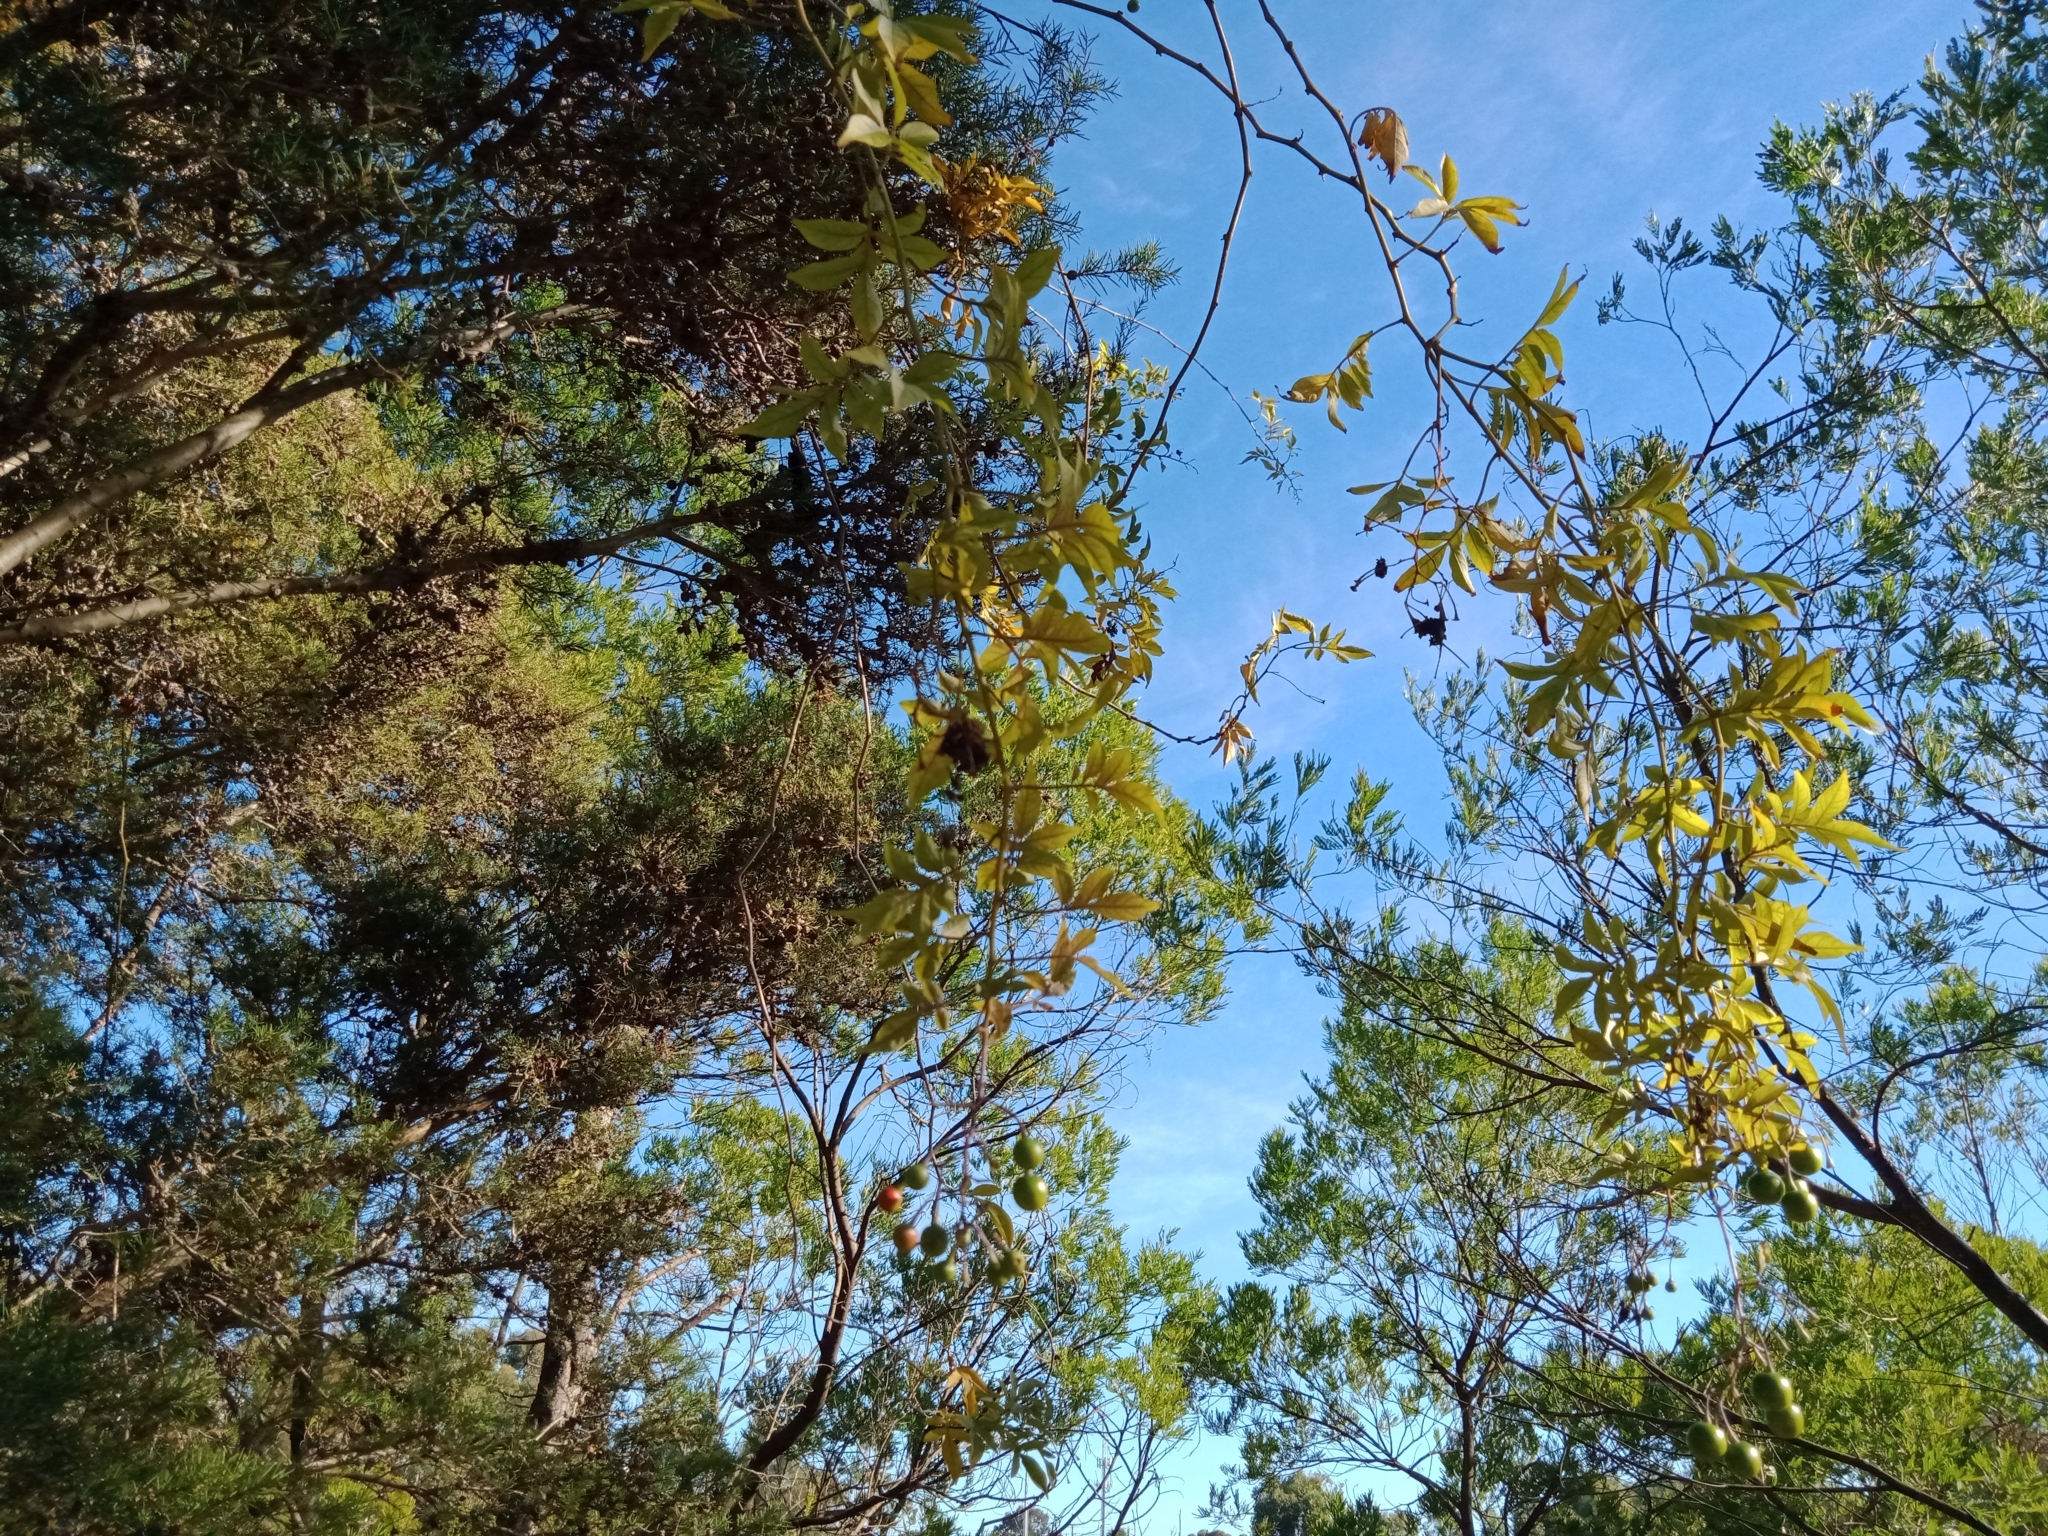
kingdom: Plantae
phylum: Tracheophyta
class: Magnoliopsida
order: Solanales
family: Solanaceae
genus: Solanum
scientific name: Solanum seaforthianum
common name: Brazilian nightshade
